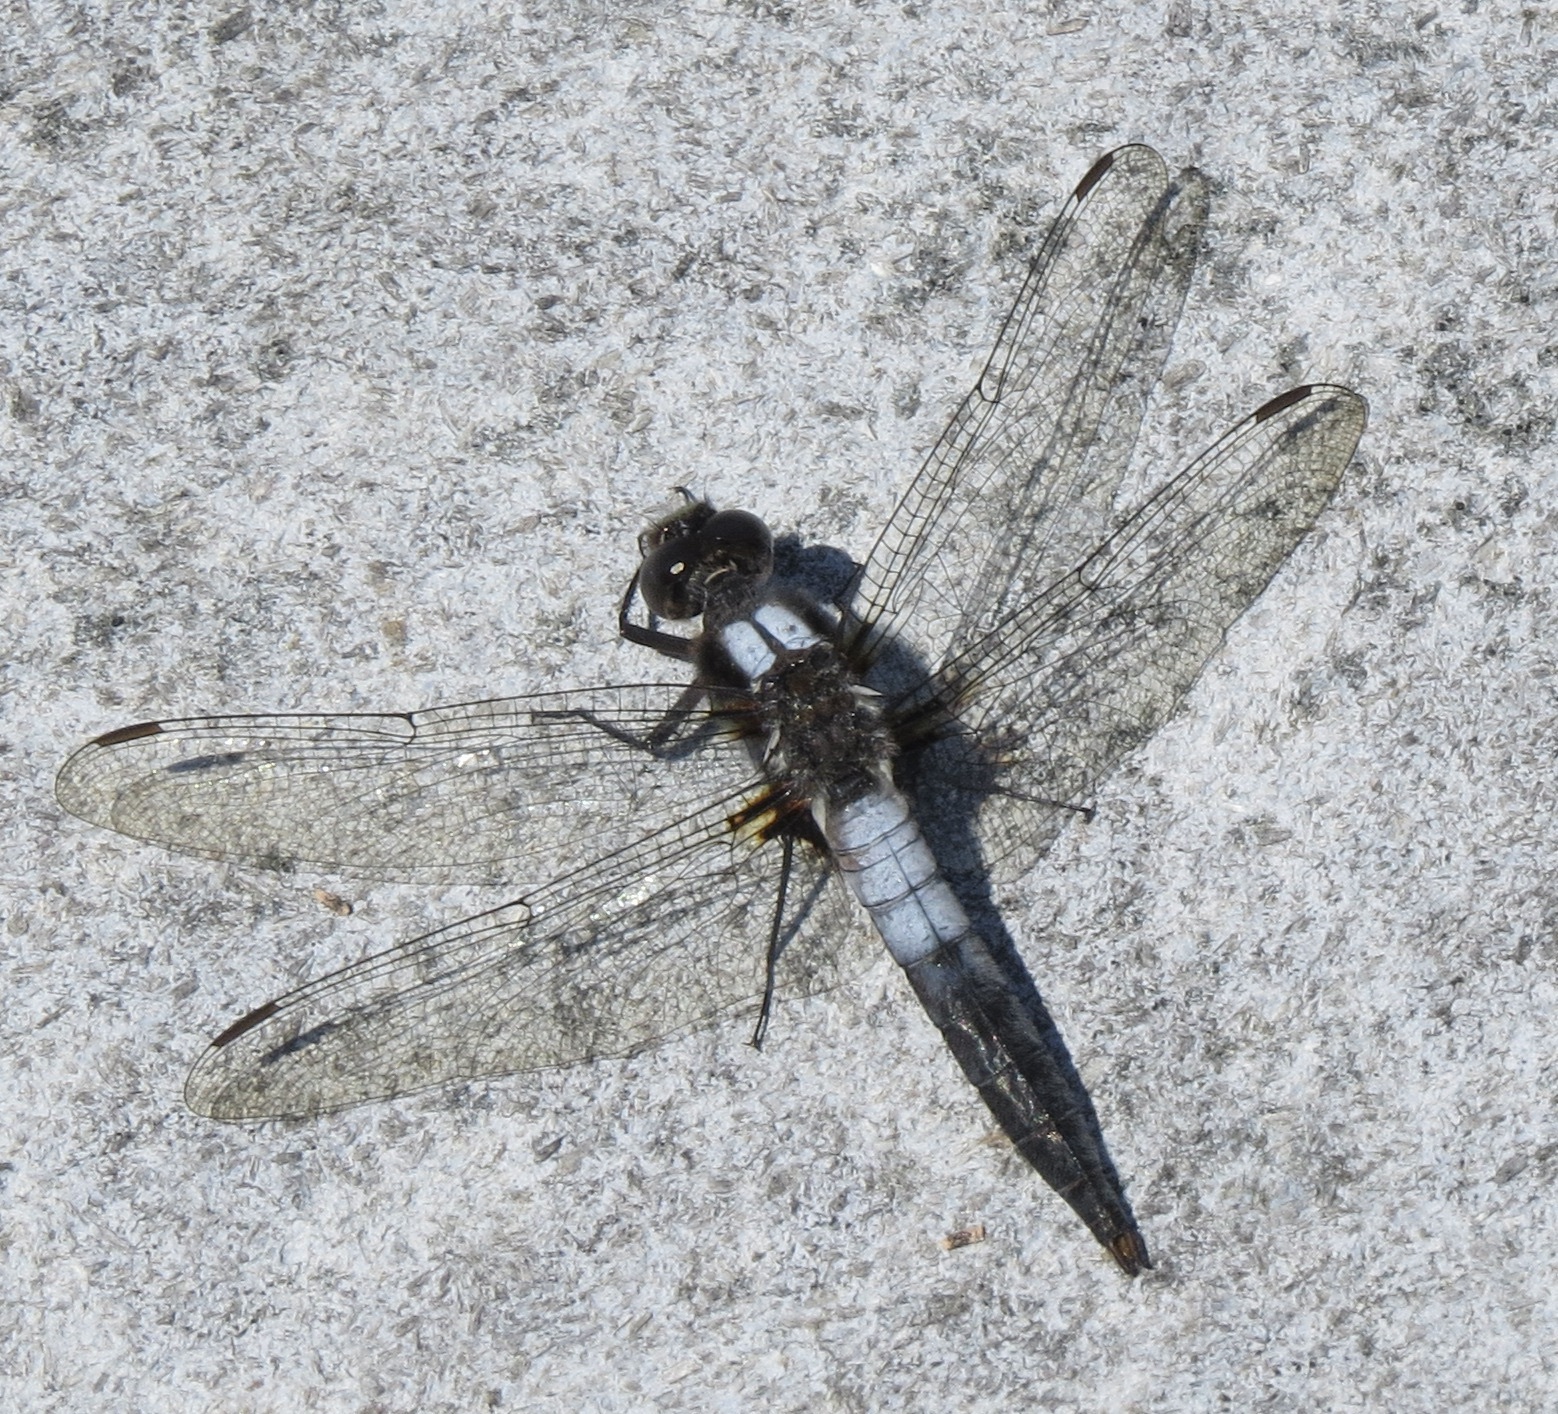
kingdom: Animalia
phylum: Arthropoda
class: Insecta
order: Odonata
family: Libellulidae
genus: Ladona
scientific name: Ladona julia
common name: Chalk-fronted corporal
